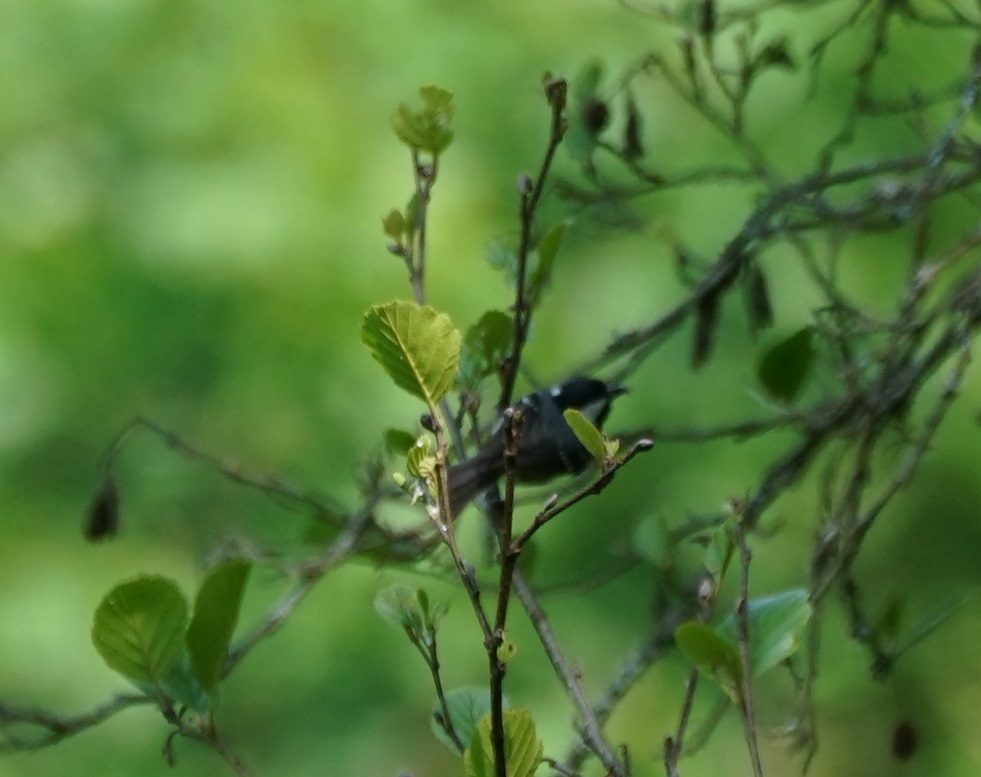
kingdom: Animalia
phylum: Chordata
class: Aves
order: Passeriformes
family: Paridae
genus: Periparus
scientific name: Periparus ater
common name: Coal tit
